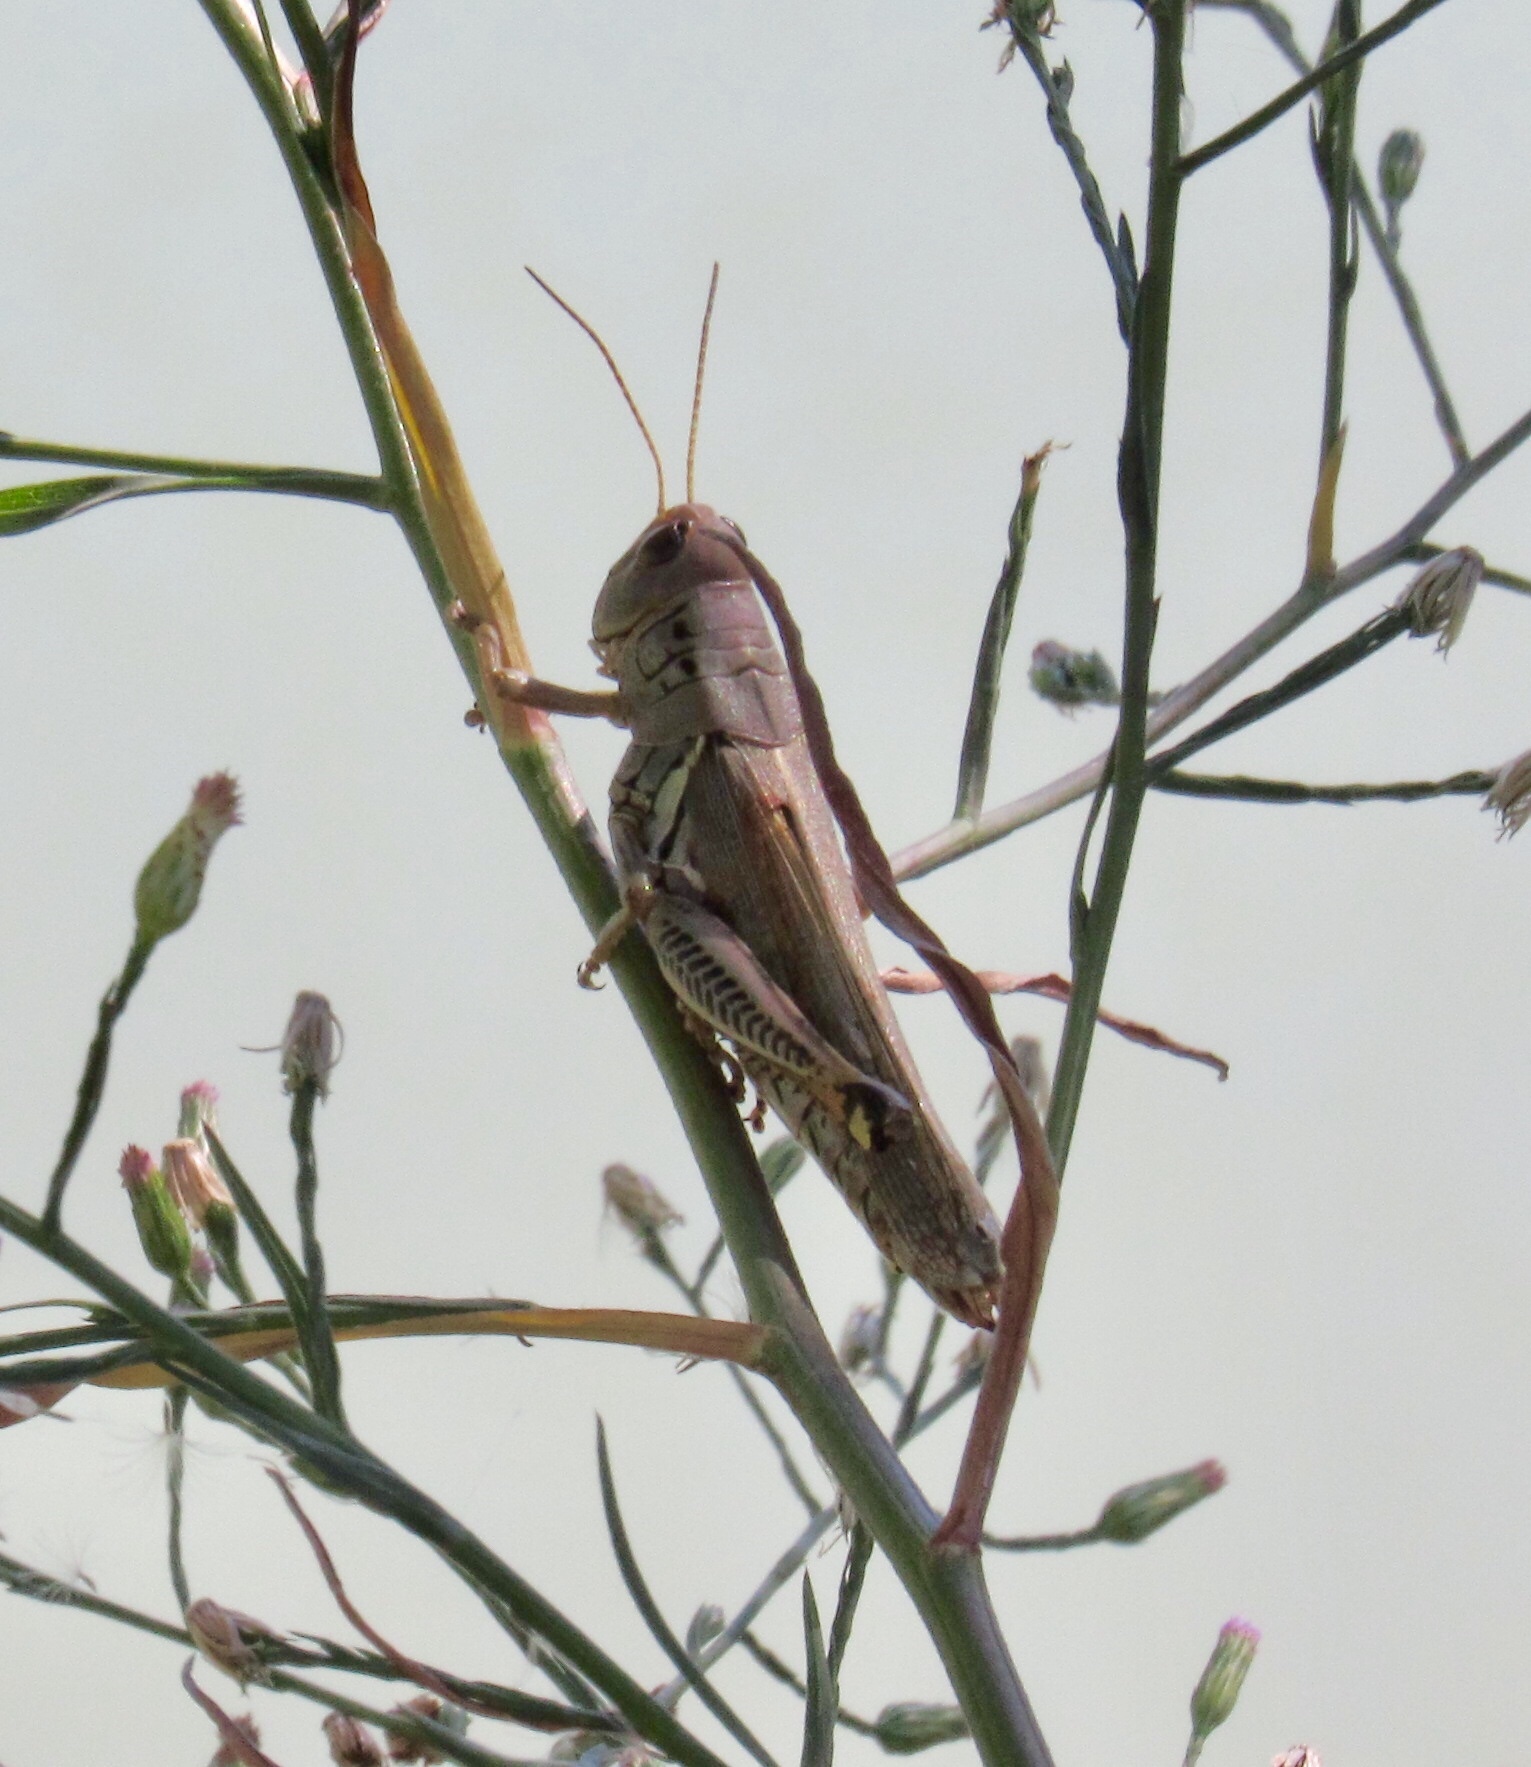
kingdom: Animalia
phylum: Arthropoda
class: Insecta
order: Orthoptera
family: Acrididae
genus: Melanoplus
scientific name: Melanoplus differentialis
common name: Differential grasshopper
